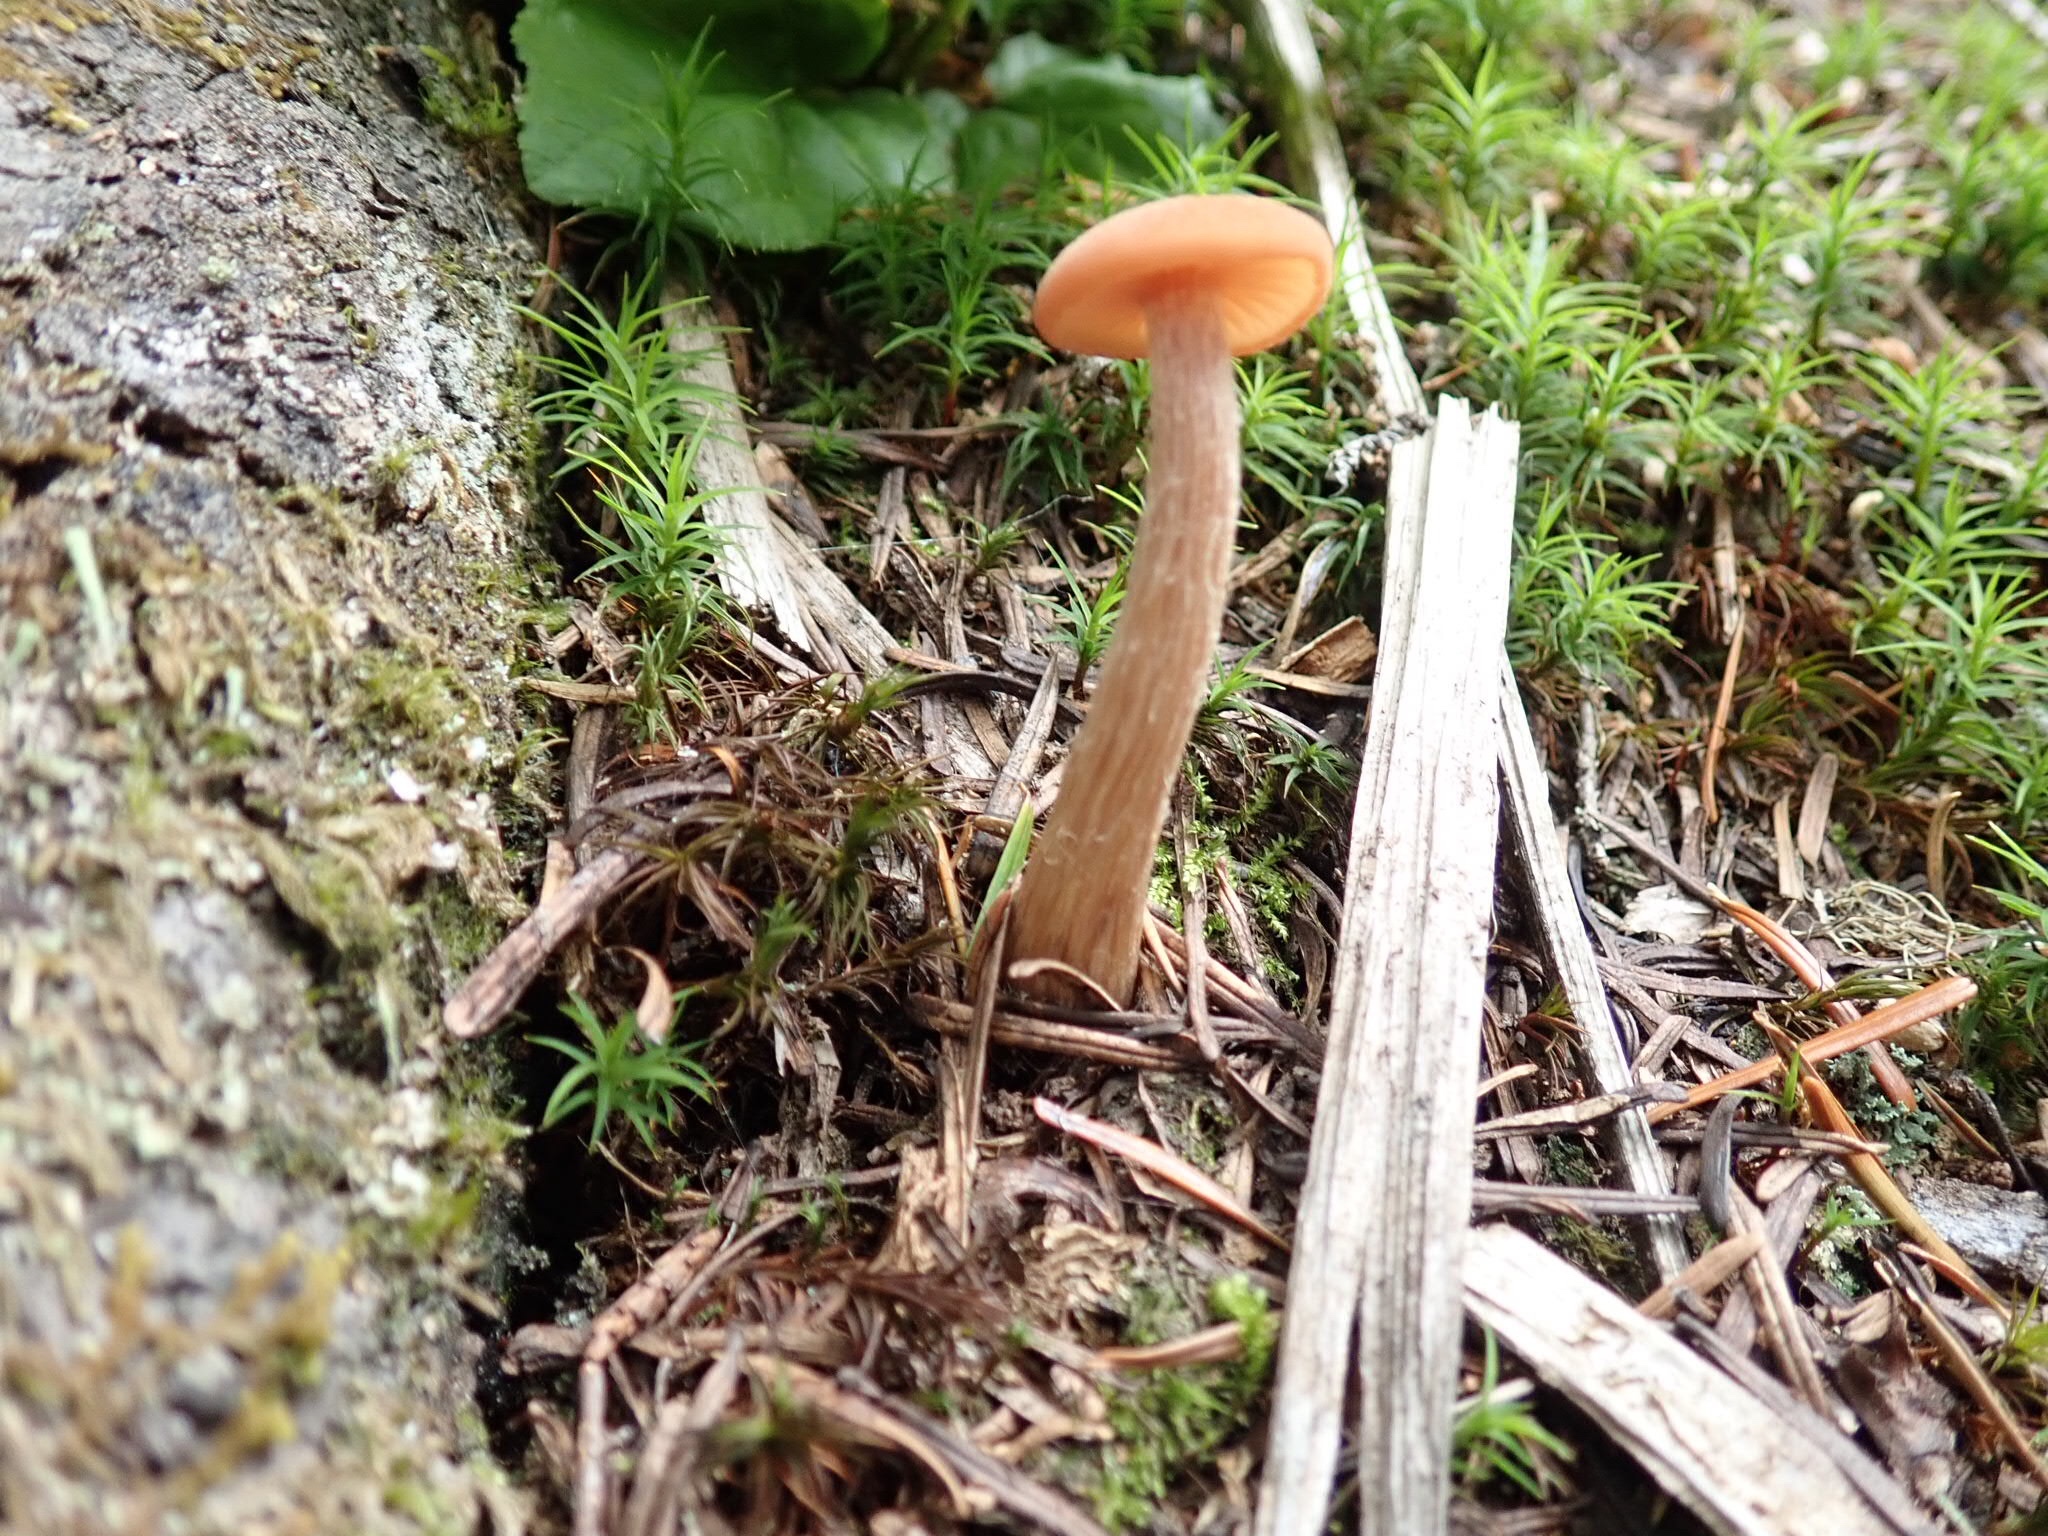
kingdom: Fungi
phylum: Basidiomycota
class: Agaricomycetes
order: Agaricales
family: Hydnangiaceae
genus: Laccaria
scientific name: Laccaria laccata
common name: Deceiver
